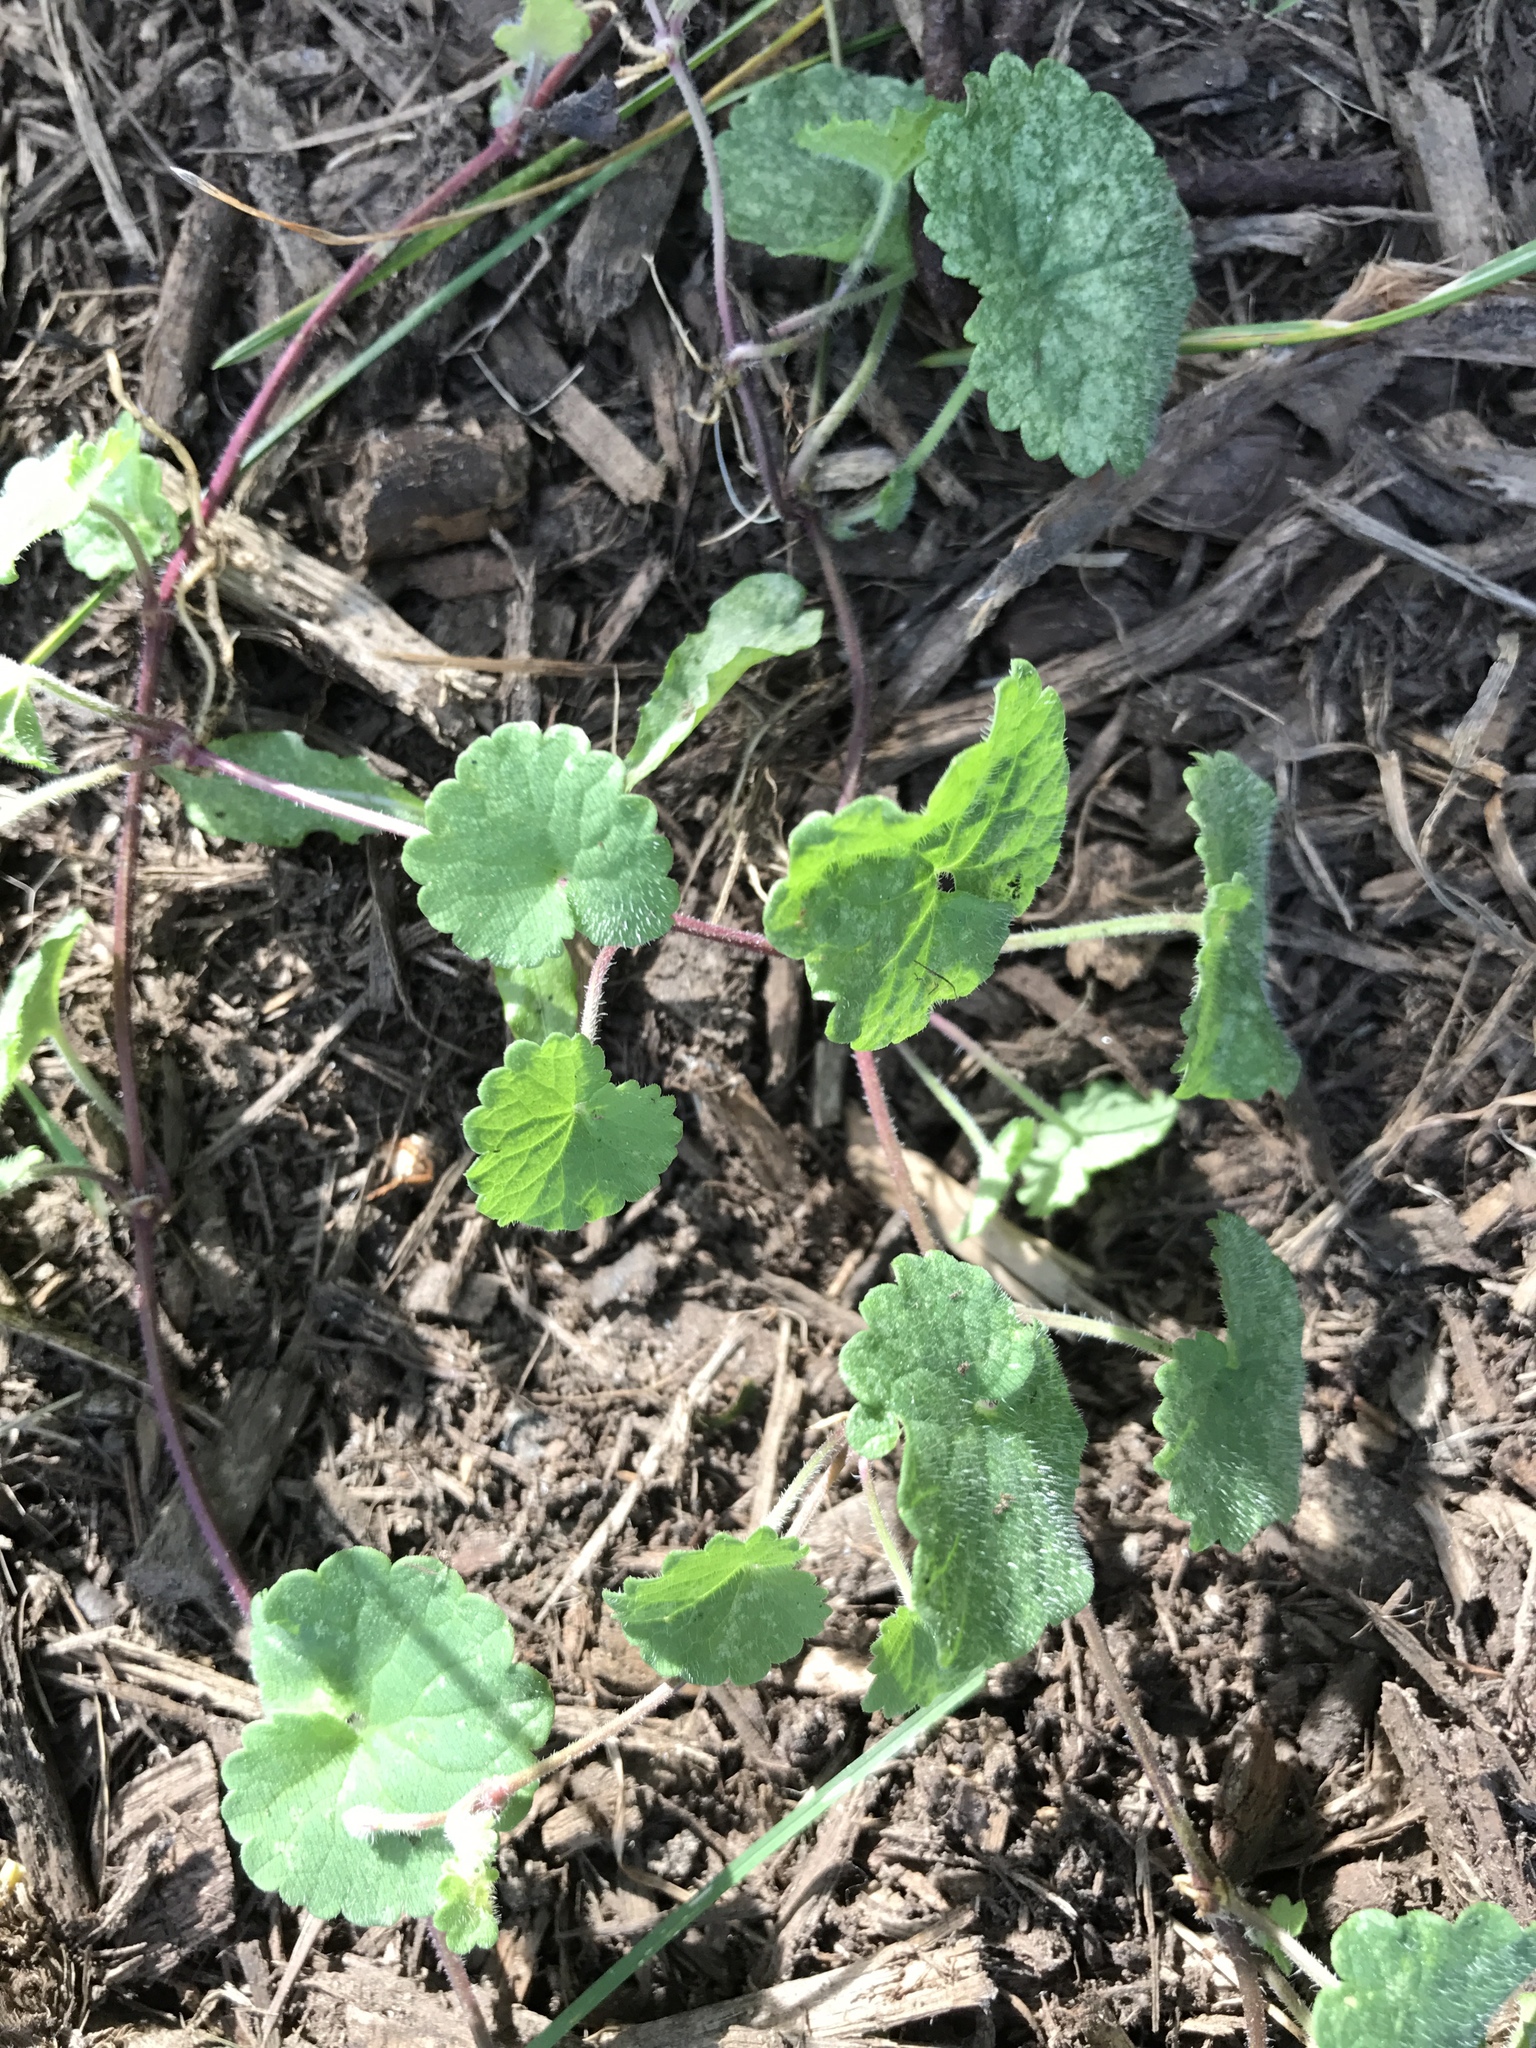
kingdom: Plantae
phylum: Tracheophyta
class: Magnoliopsida
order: Lamiales
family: Lamiaceae
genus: Glechoma
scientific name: Glechoma hederacea
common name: Ground ivy
